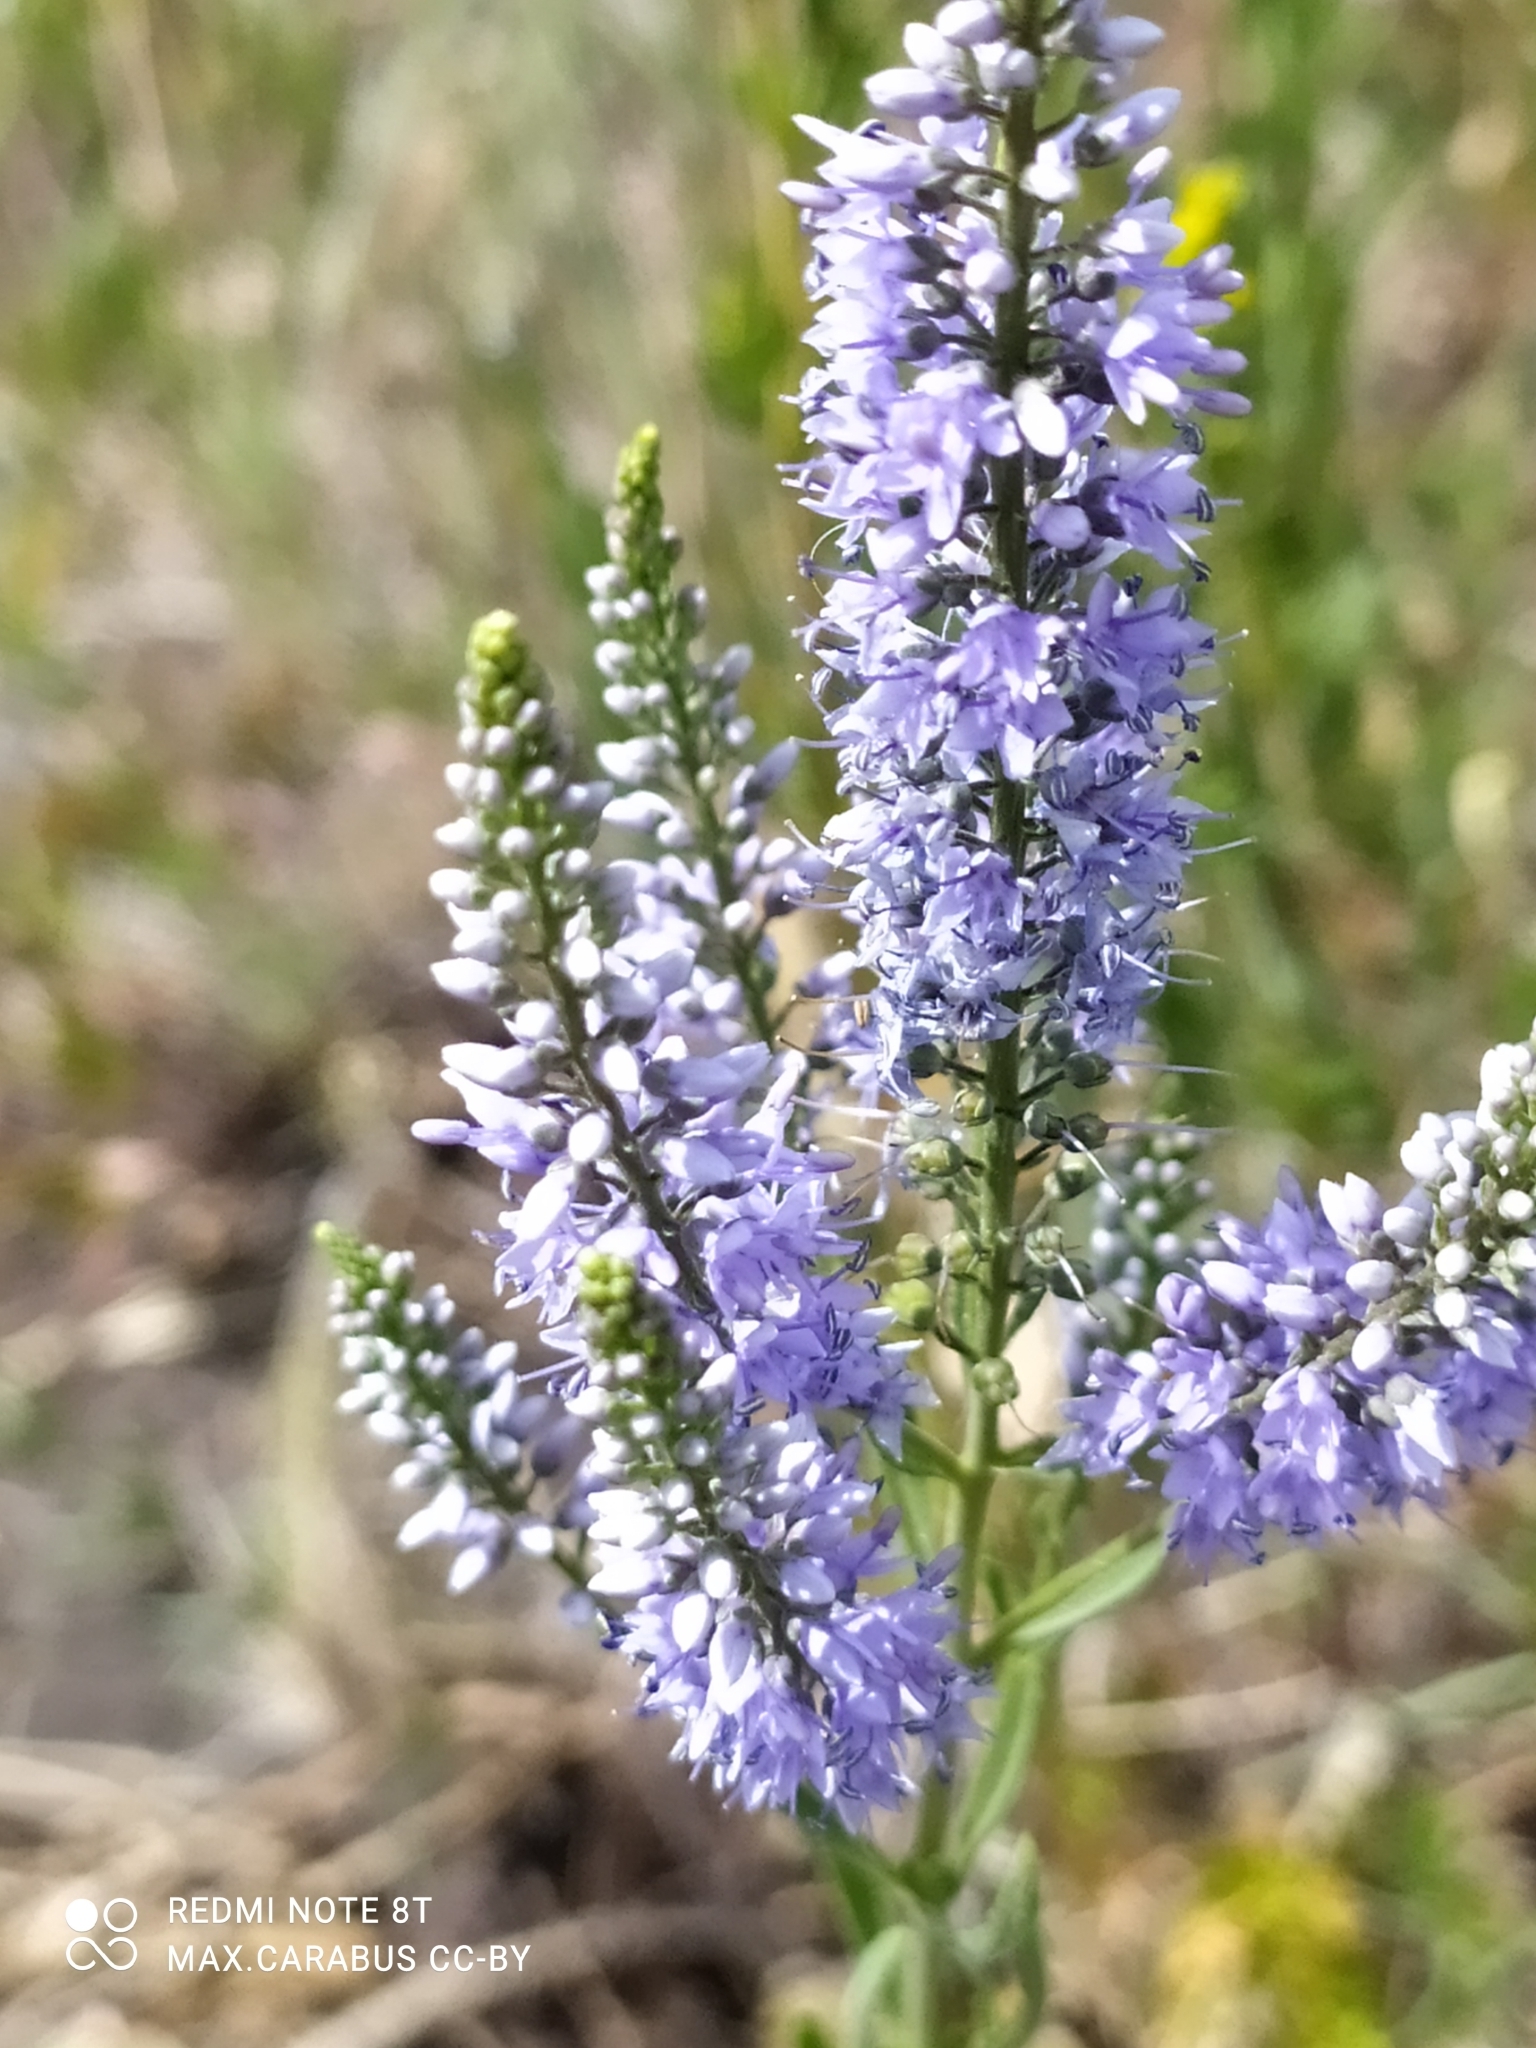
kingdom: Plantae
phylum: Tracheophyta
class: Magnoliopsida
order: Lamiales
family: Plantaginaceae
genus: Veronica
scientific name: Veronica spuria
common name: Bastard speedwell
